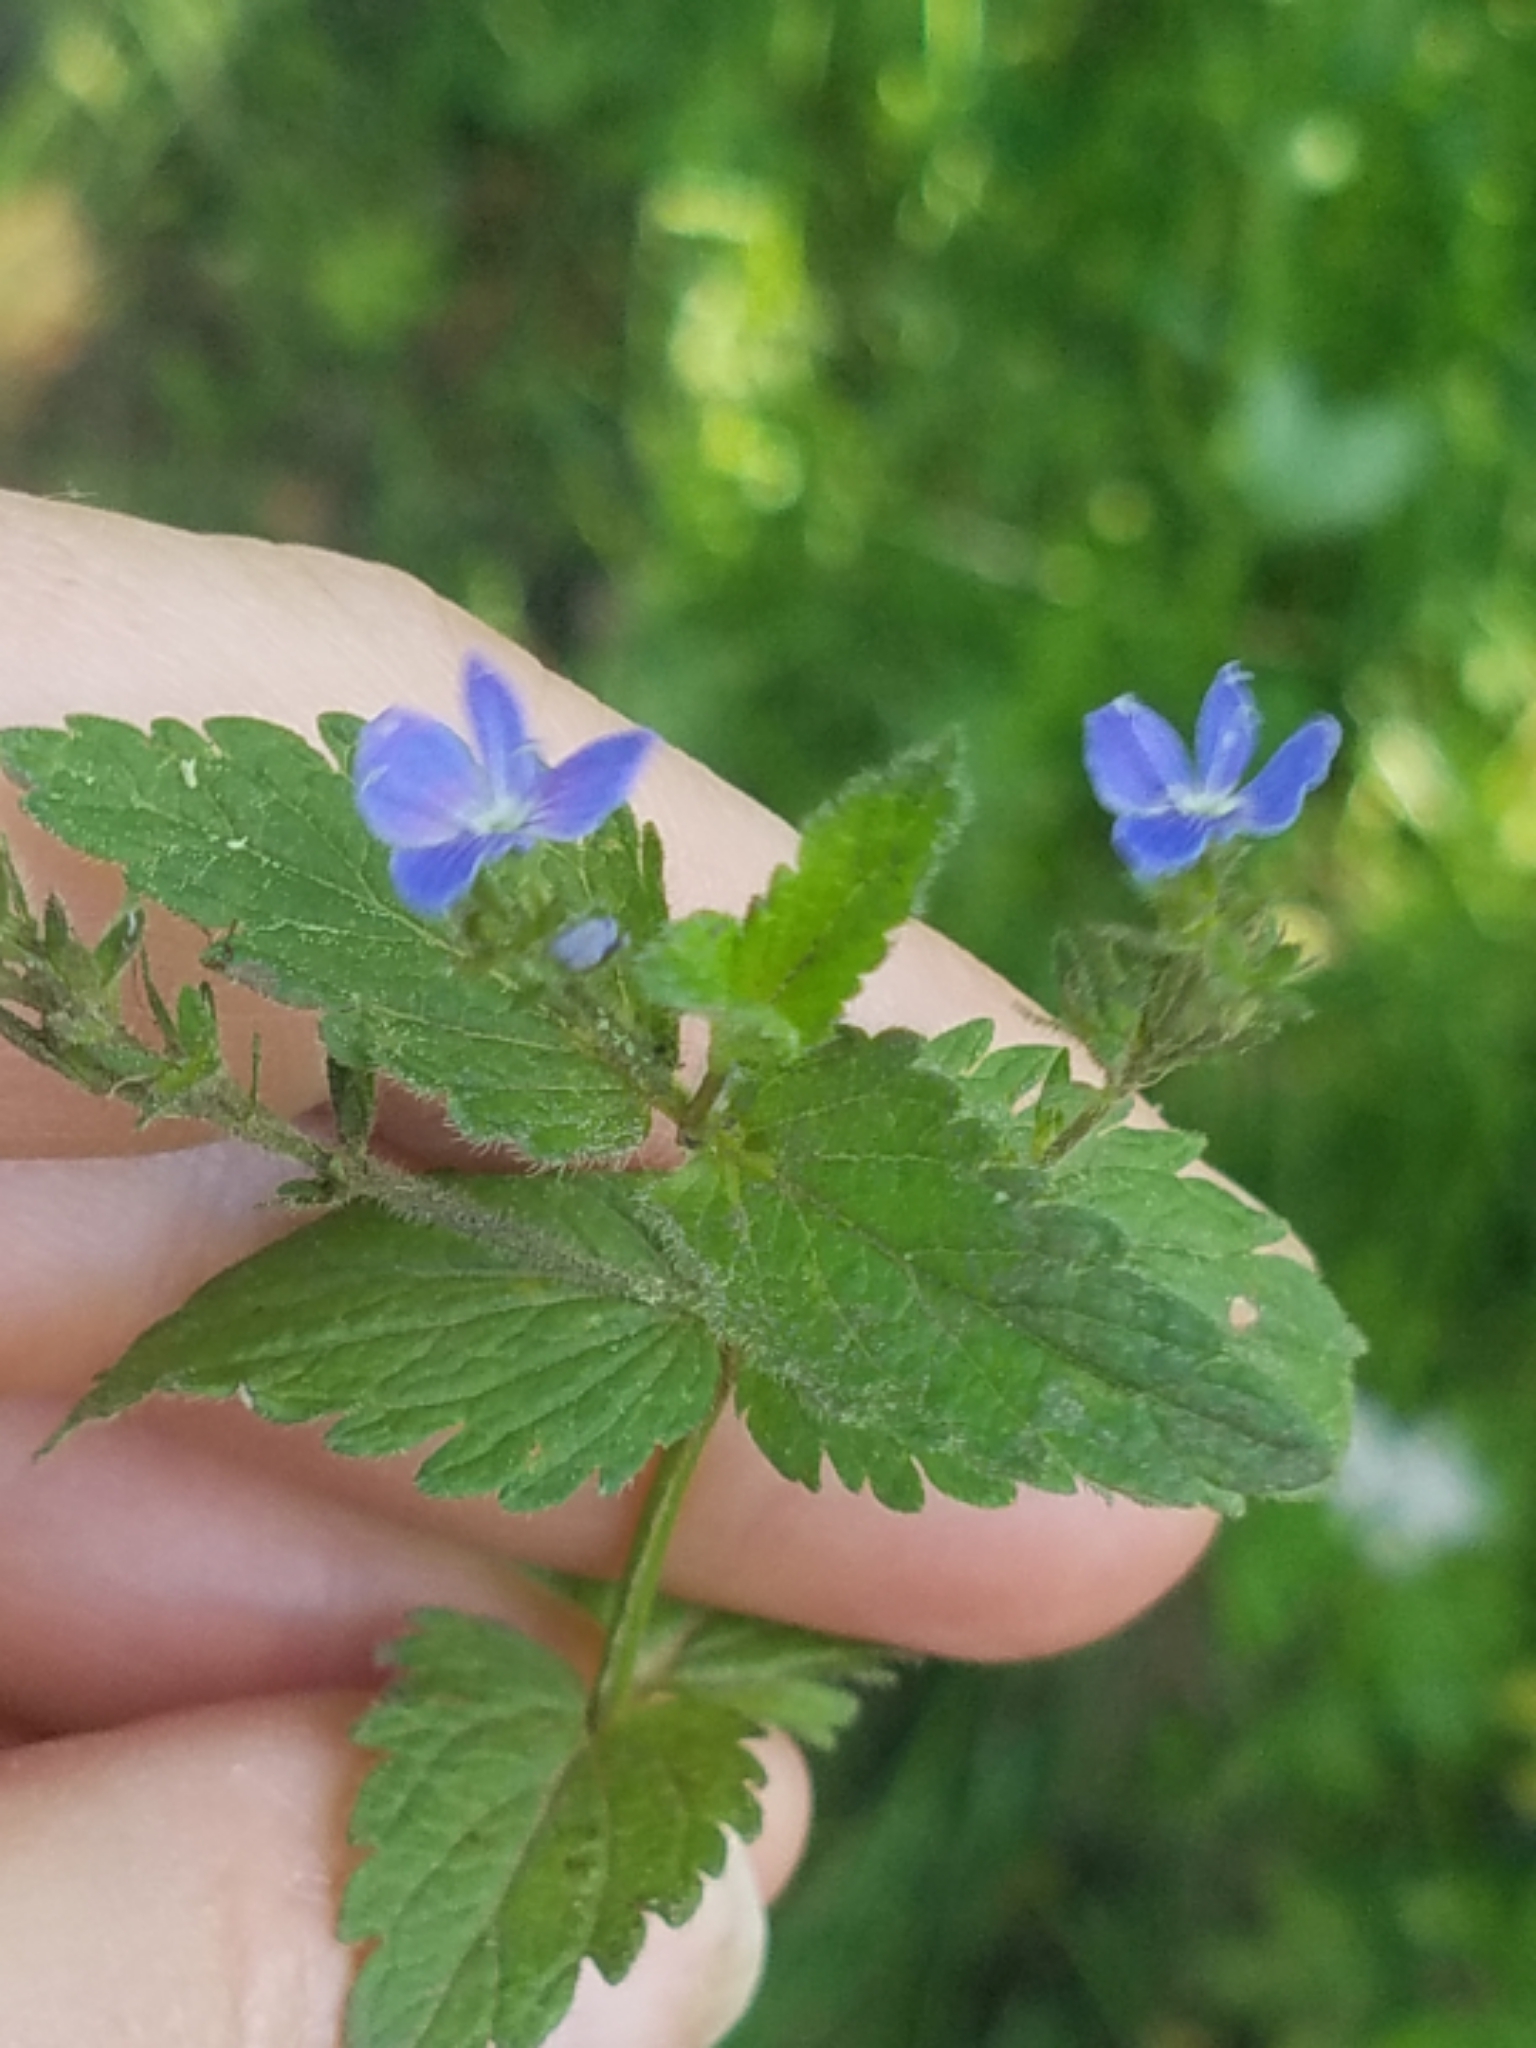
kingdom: Plantae
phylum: Tracheophyta
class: Magnoliopsida
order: Lamiales
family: Plantaginaceae
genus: Veronica
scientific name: Veronica chamaedrys
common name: Germander speedwell
